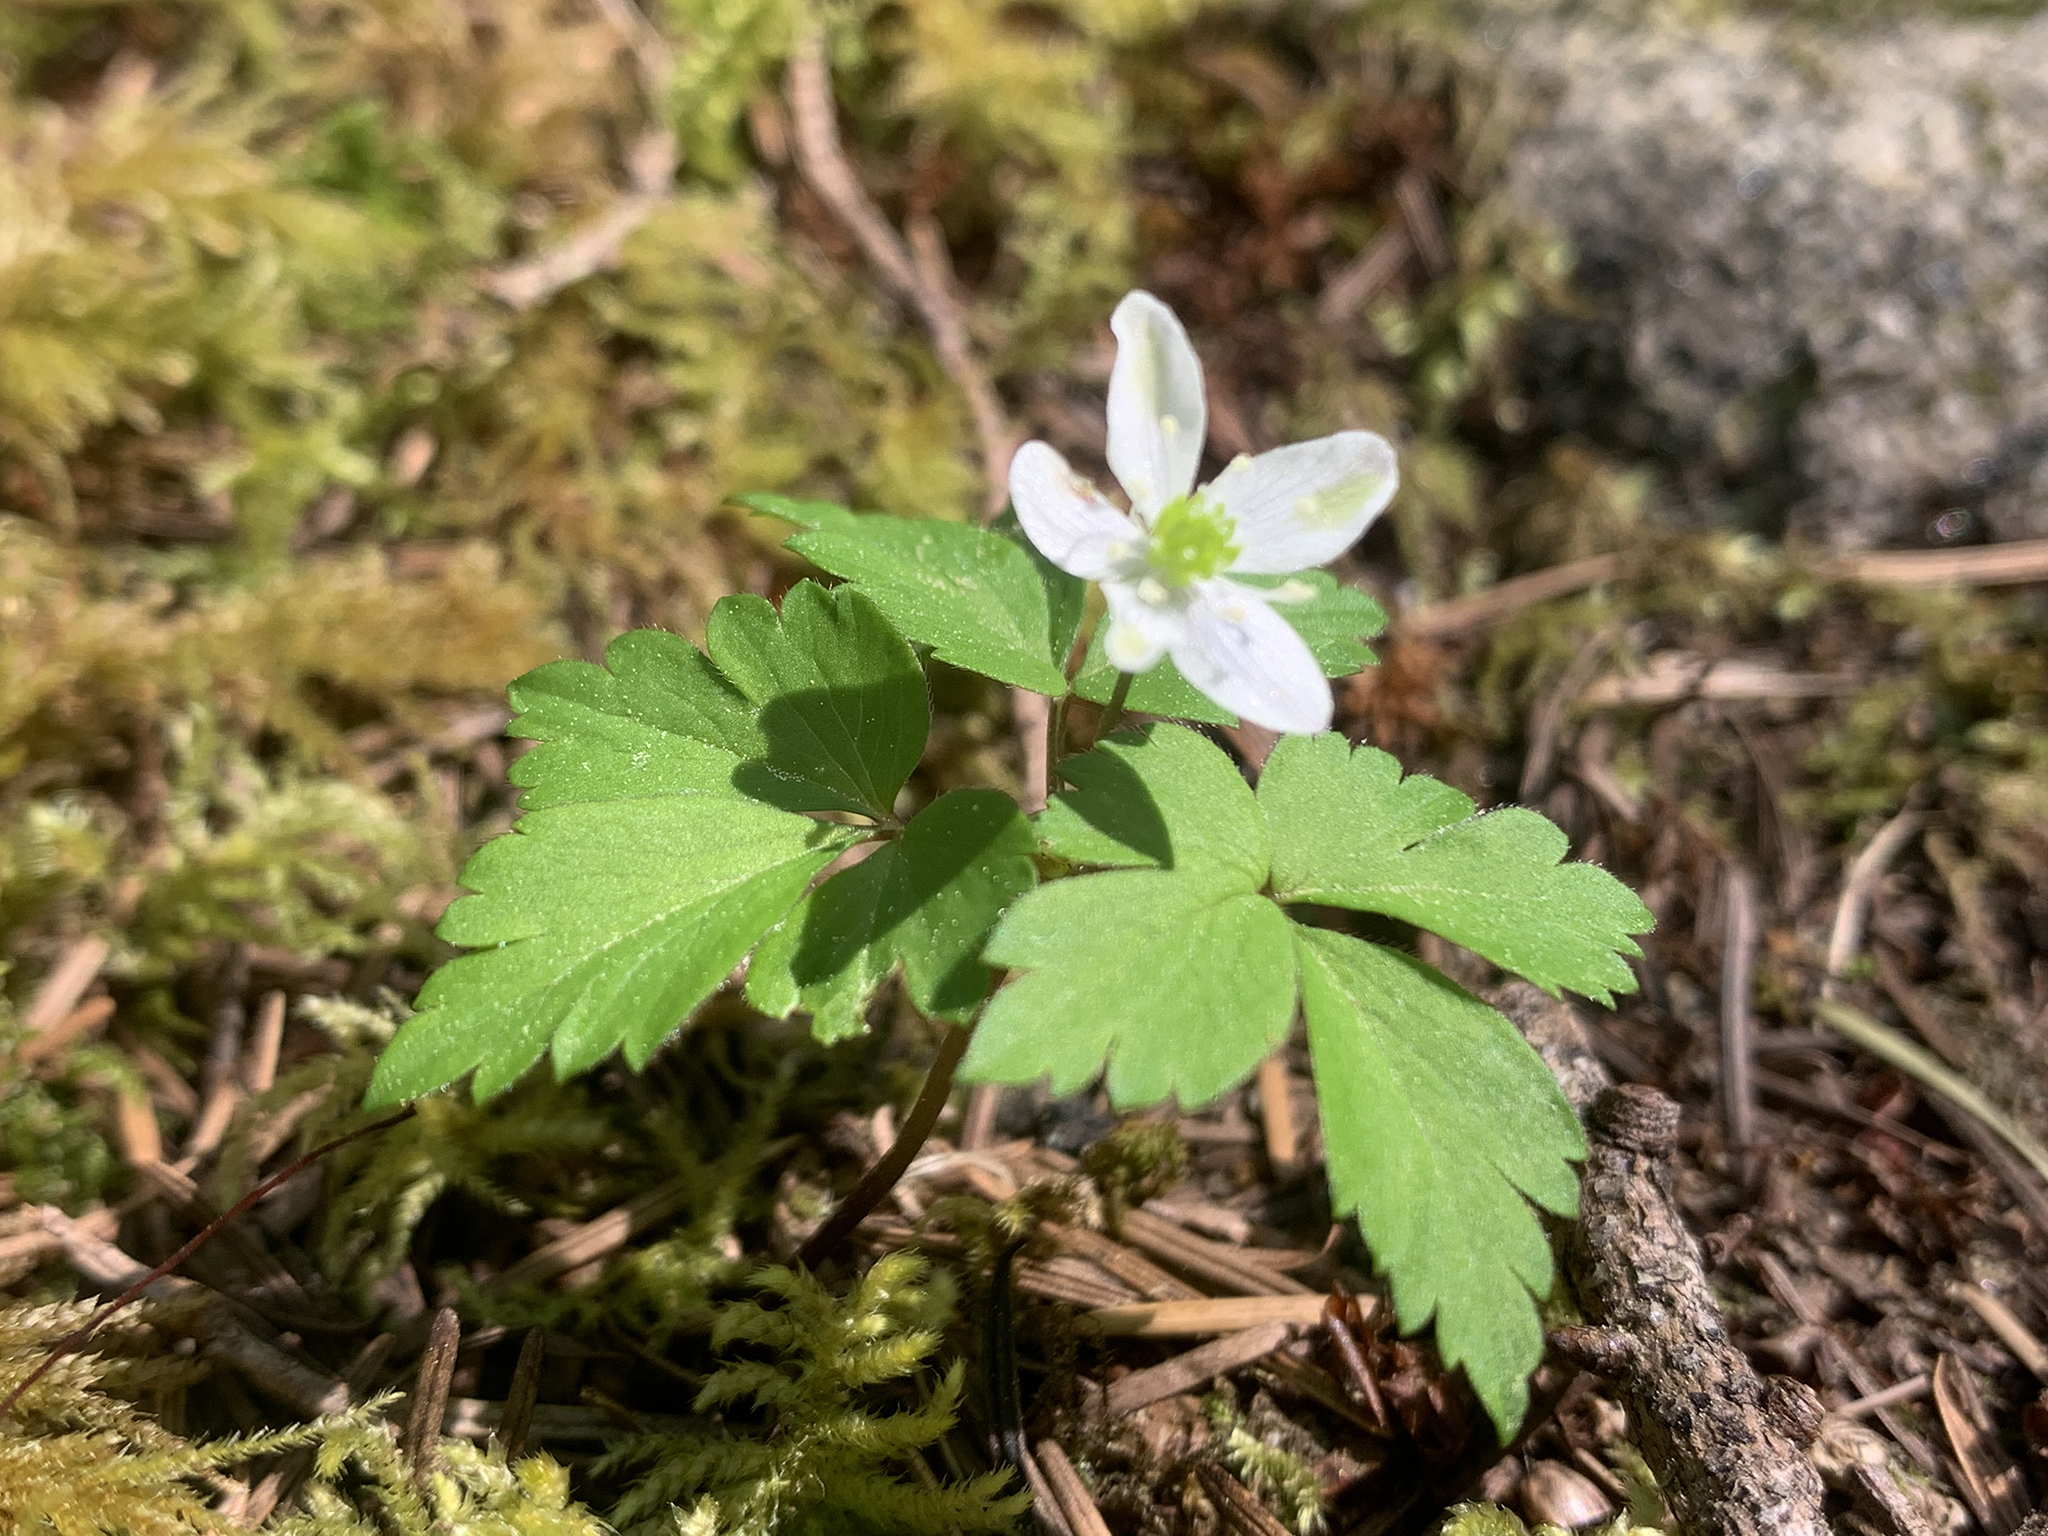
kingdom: Plantae
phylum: Tracheophyta
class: Magnoliopsida
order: Ranunculales
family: Ranunculaceae
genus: Anemone
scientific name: Anemone
